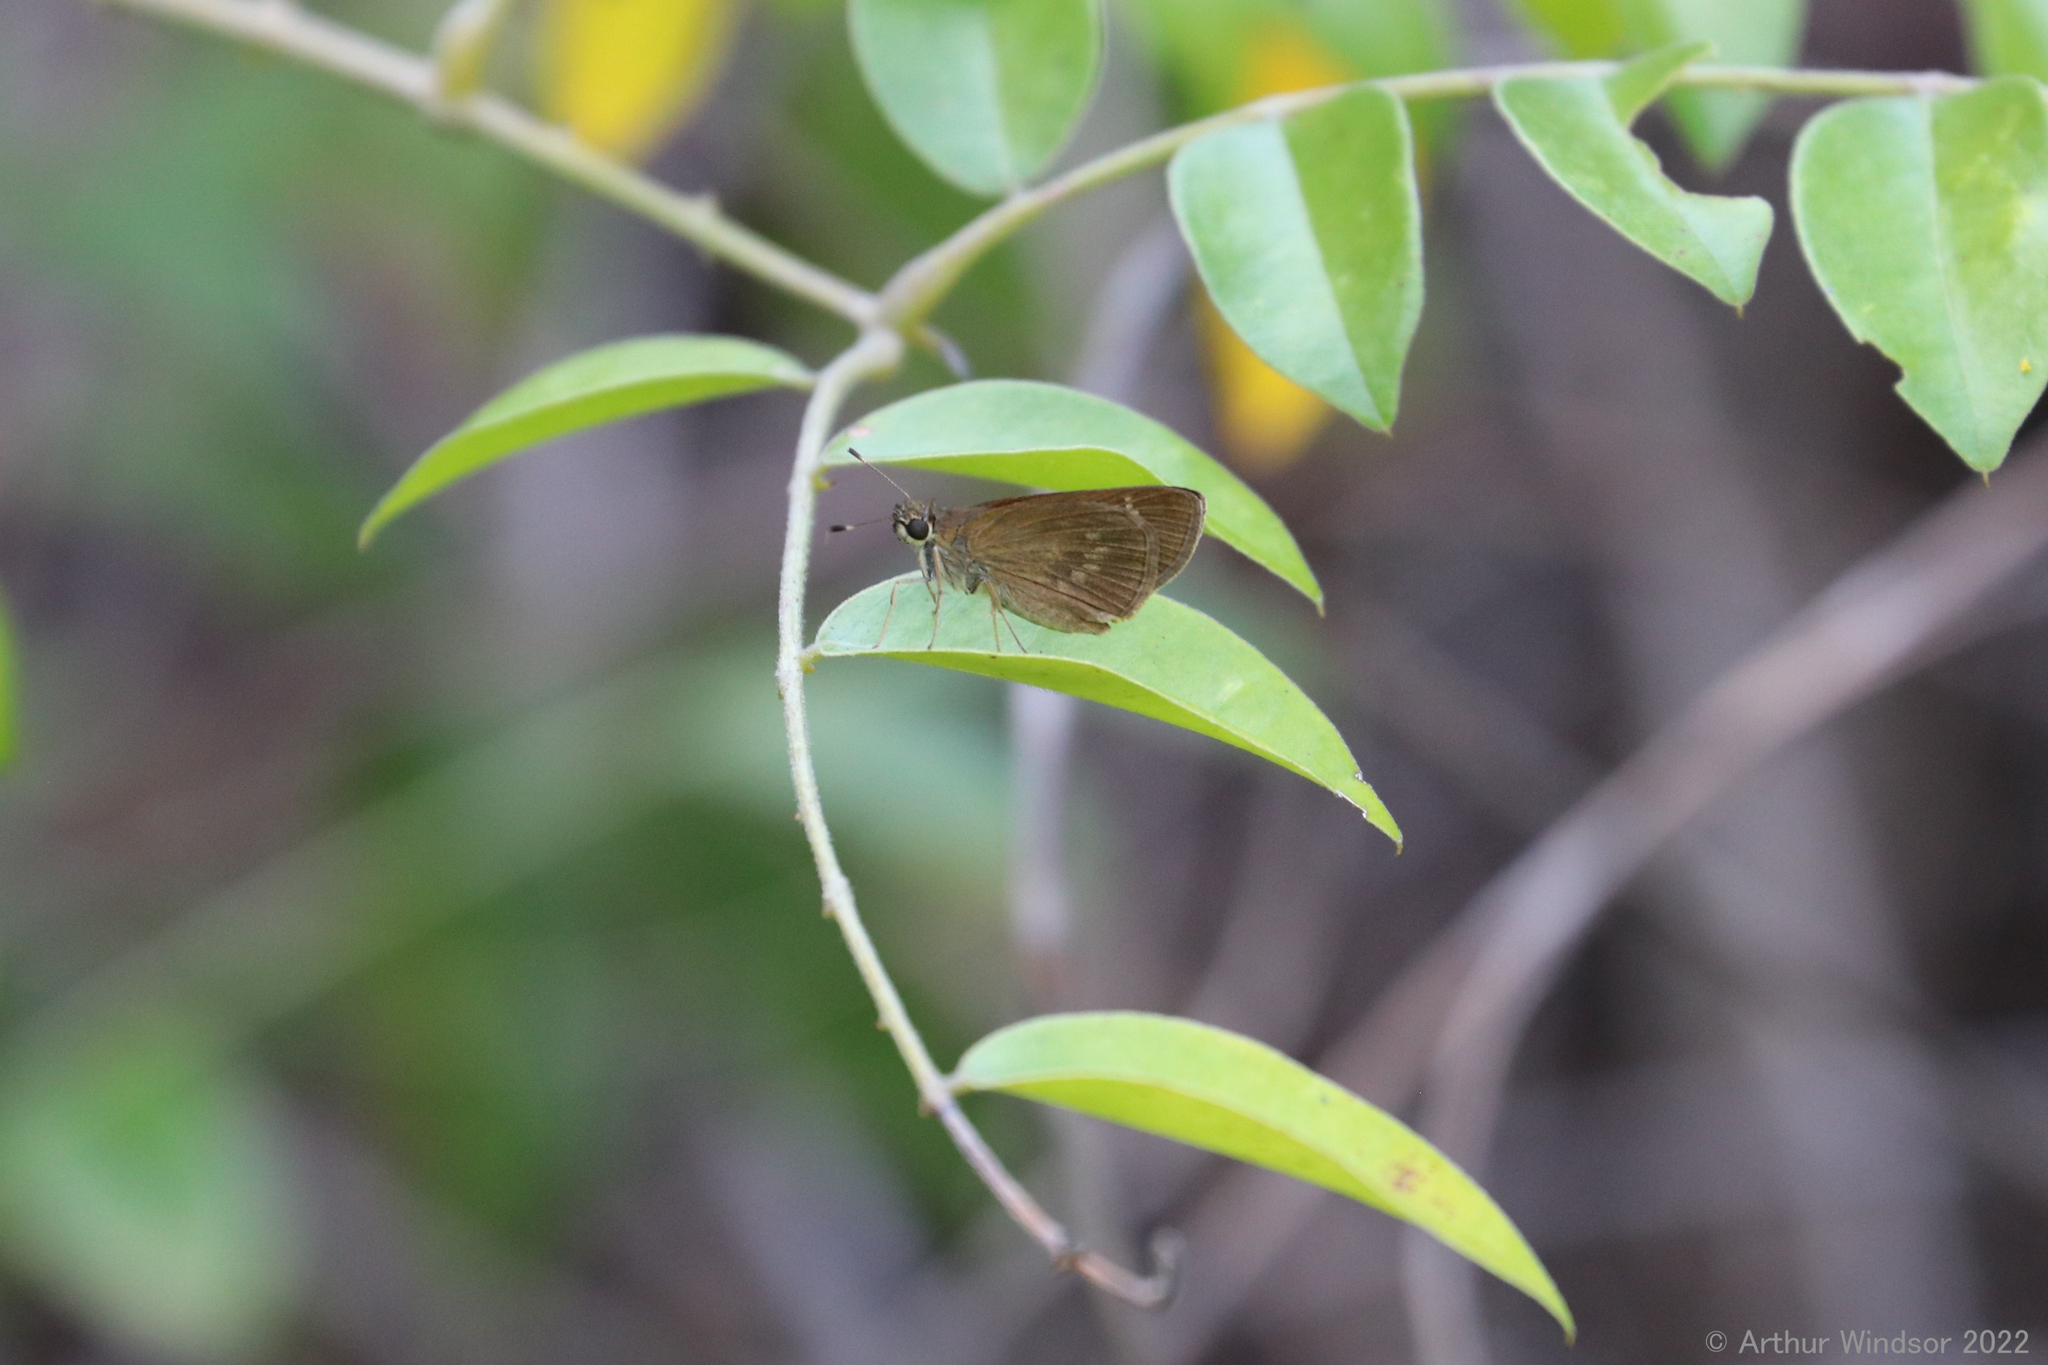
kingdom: Animalia
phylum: Arthropoda
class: Insecta
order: Lepidoptera
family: Hesperiidae
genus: Cymaenes
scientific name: Cymaenes tripunctus
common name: Dingy dotted skipper
